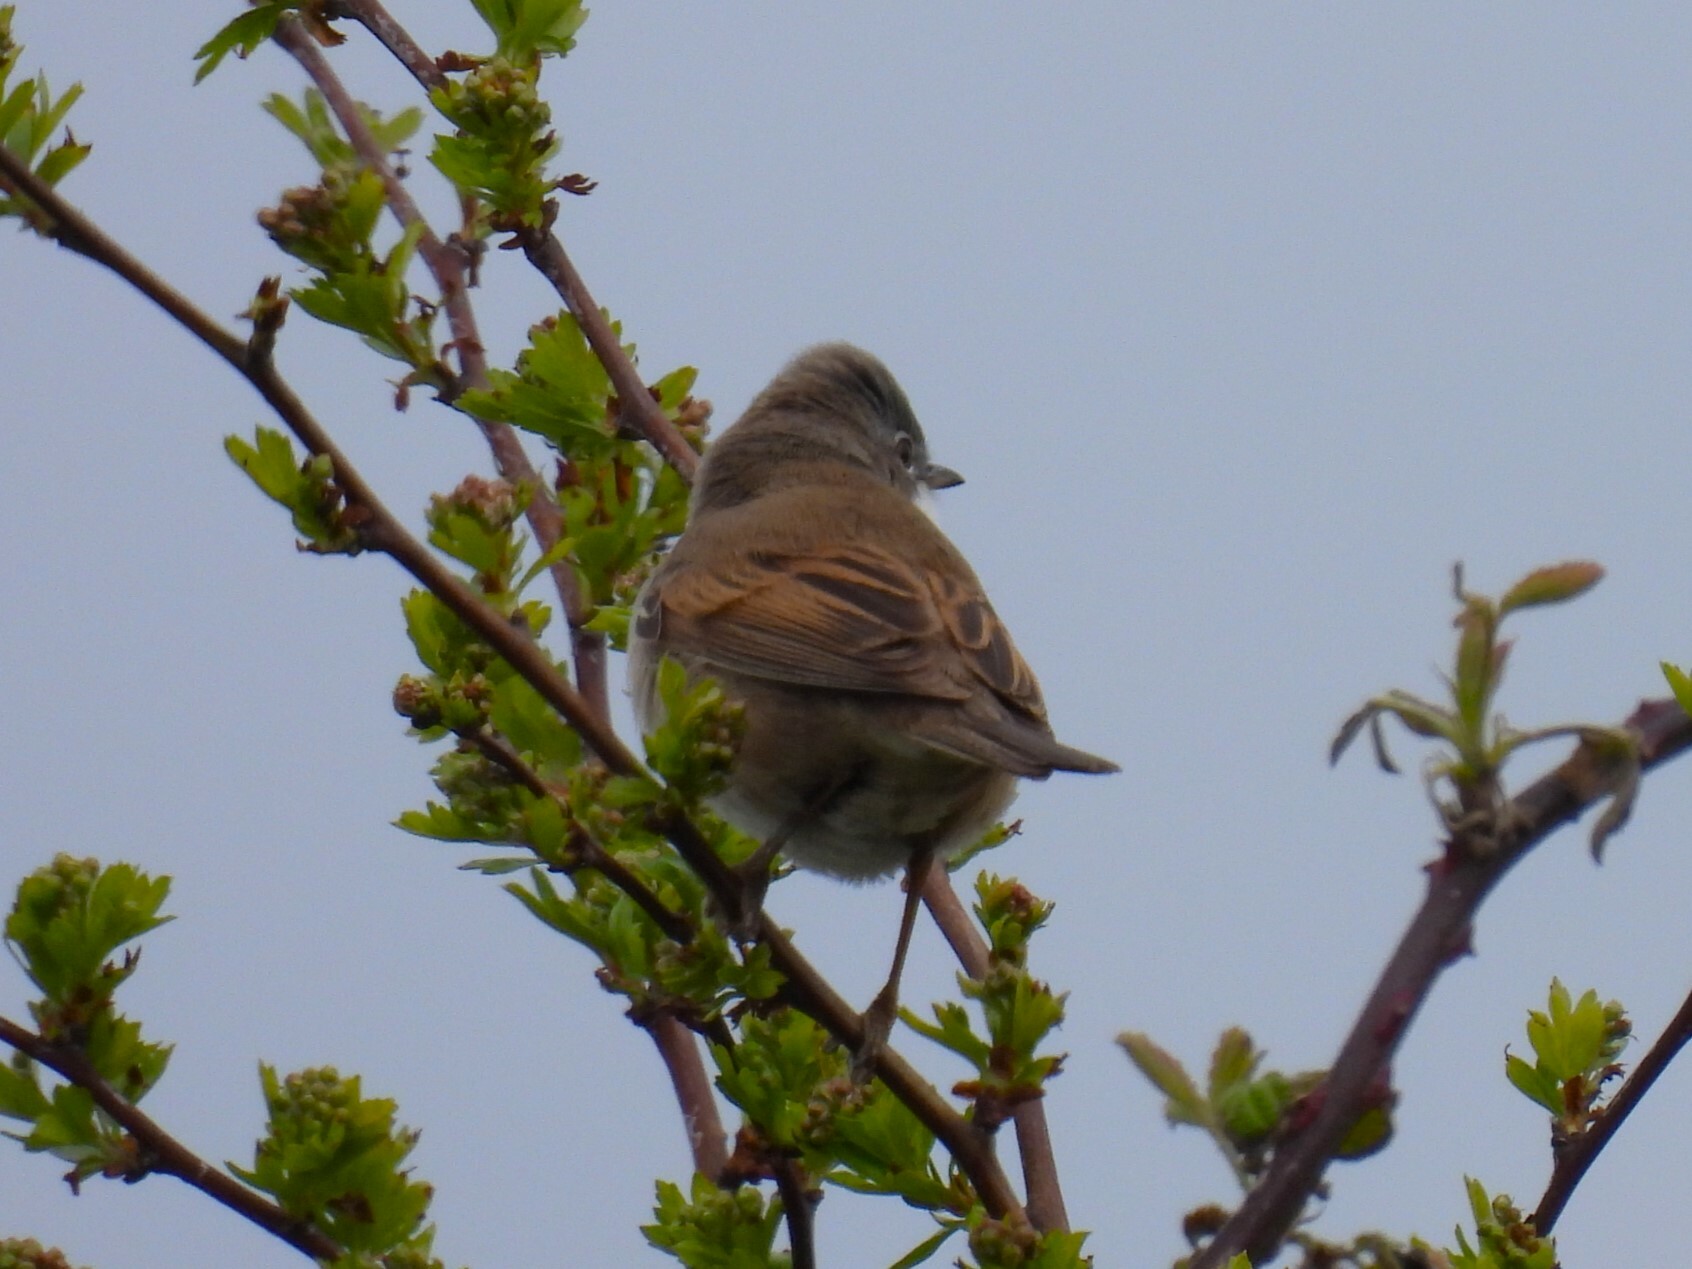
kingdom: Animalia
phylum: Chordata
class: Aves
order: Passeriformes
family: Sylviidae
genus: Sylvia
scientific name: Sylvia communis
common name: Common whitethroat
